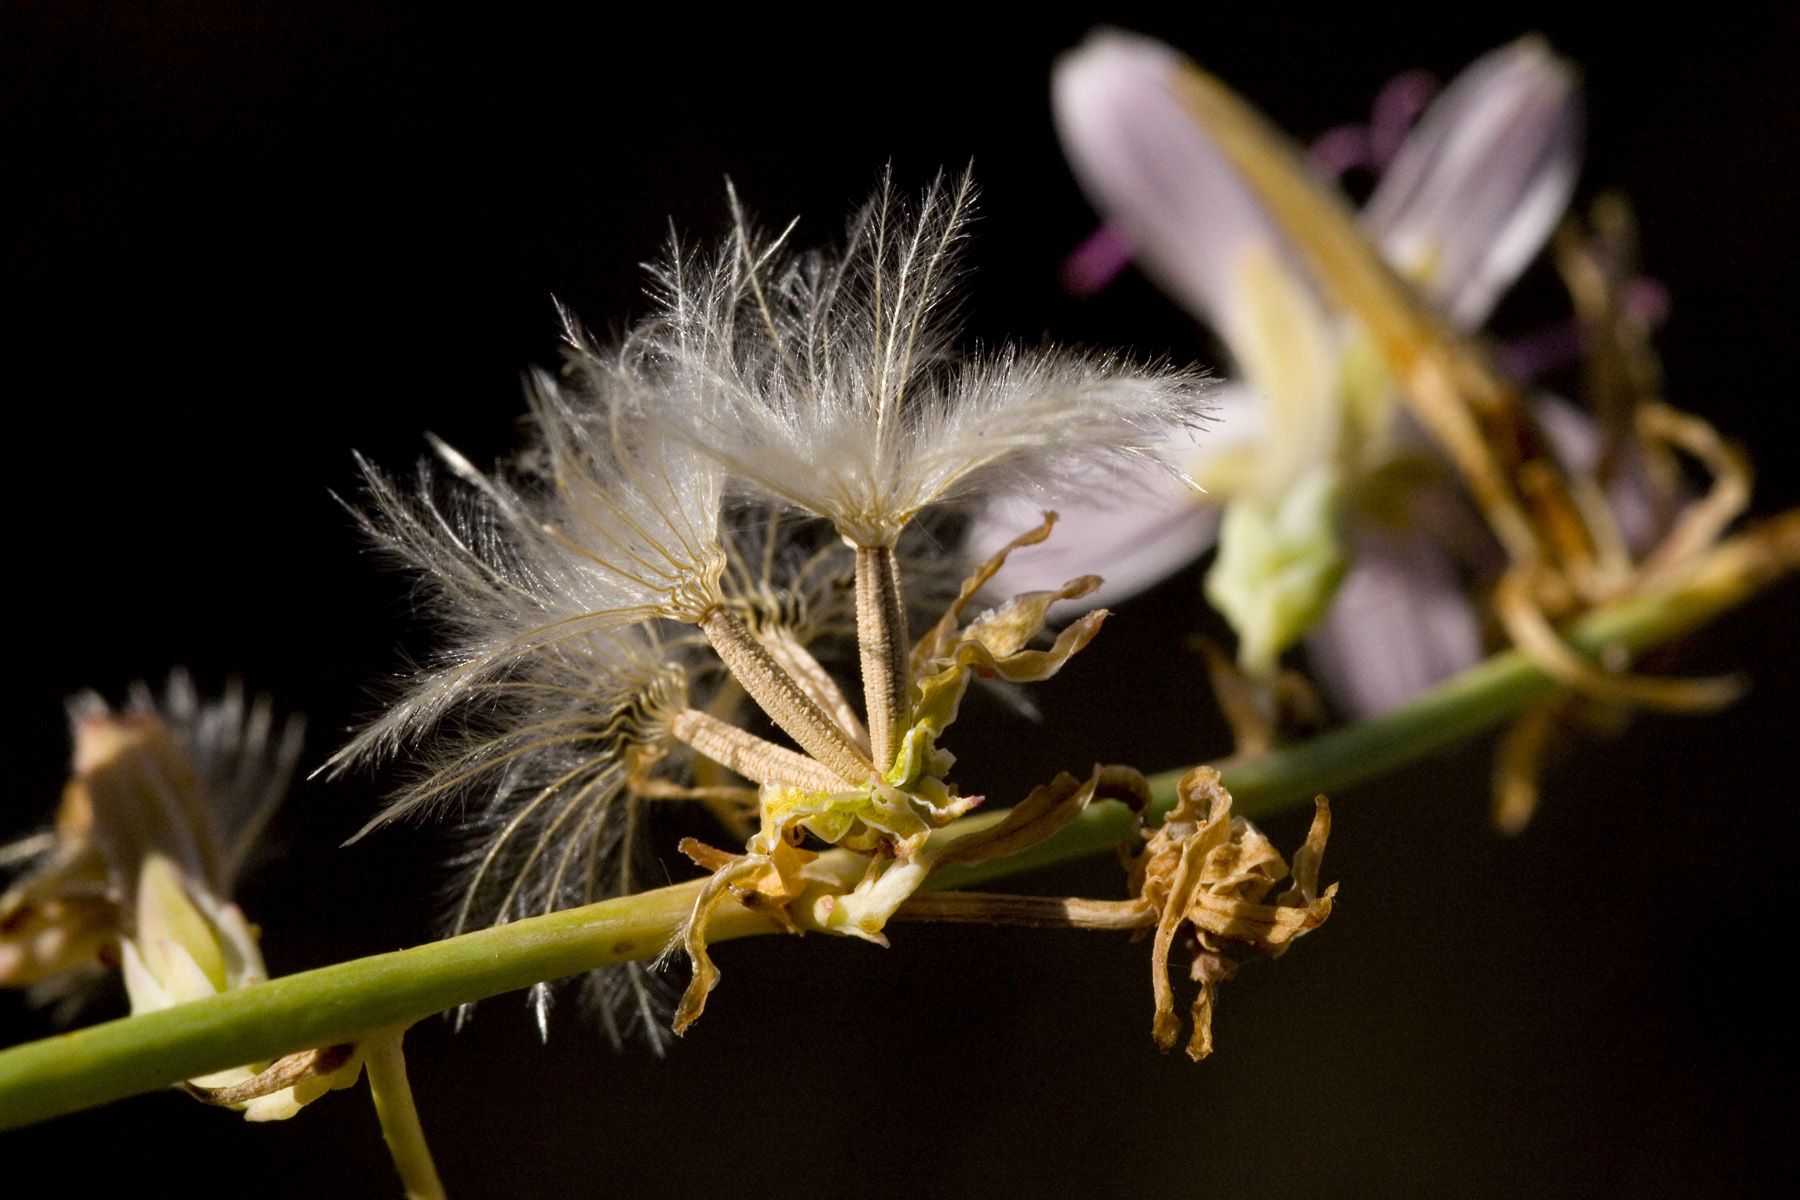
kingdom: Plantae
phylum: Tracheophyta
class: Magnoliopsida
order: Asterales
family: Asteraceae
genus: Stephanomeria
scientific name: Stephanomeria pauciflora
